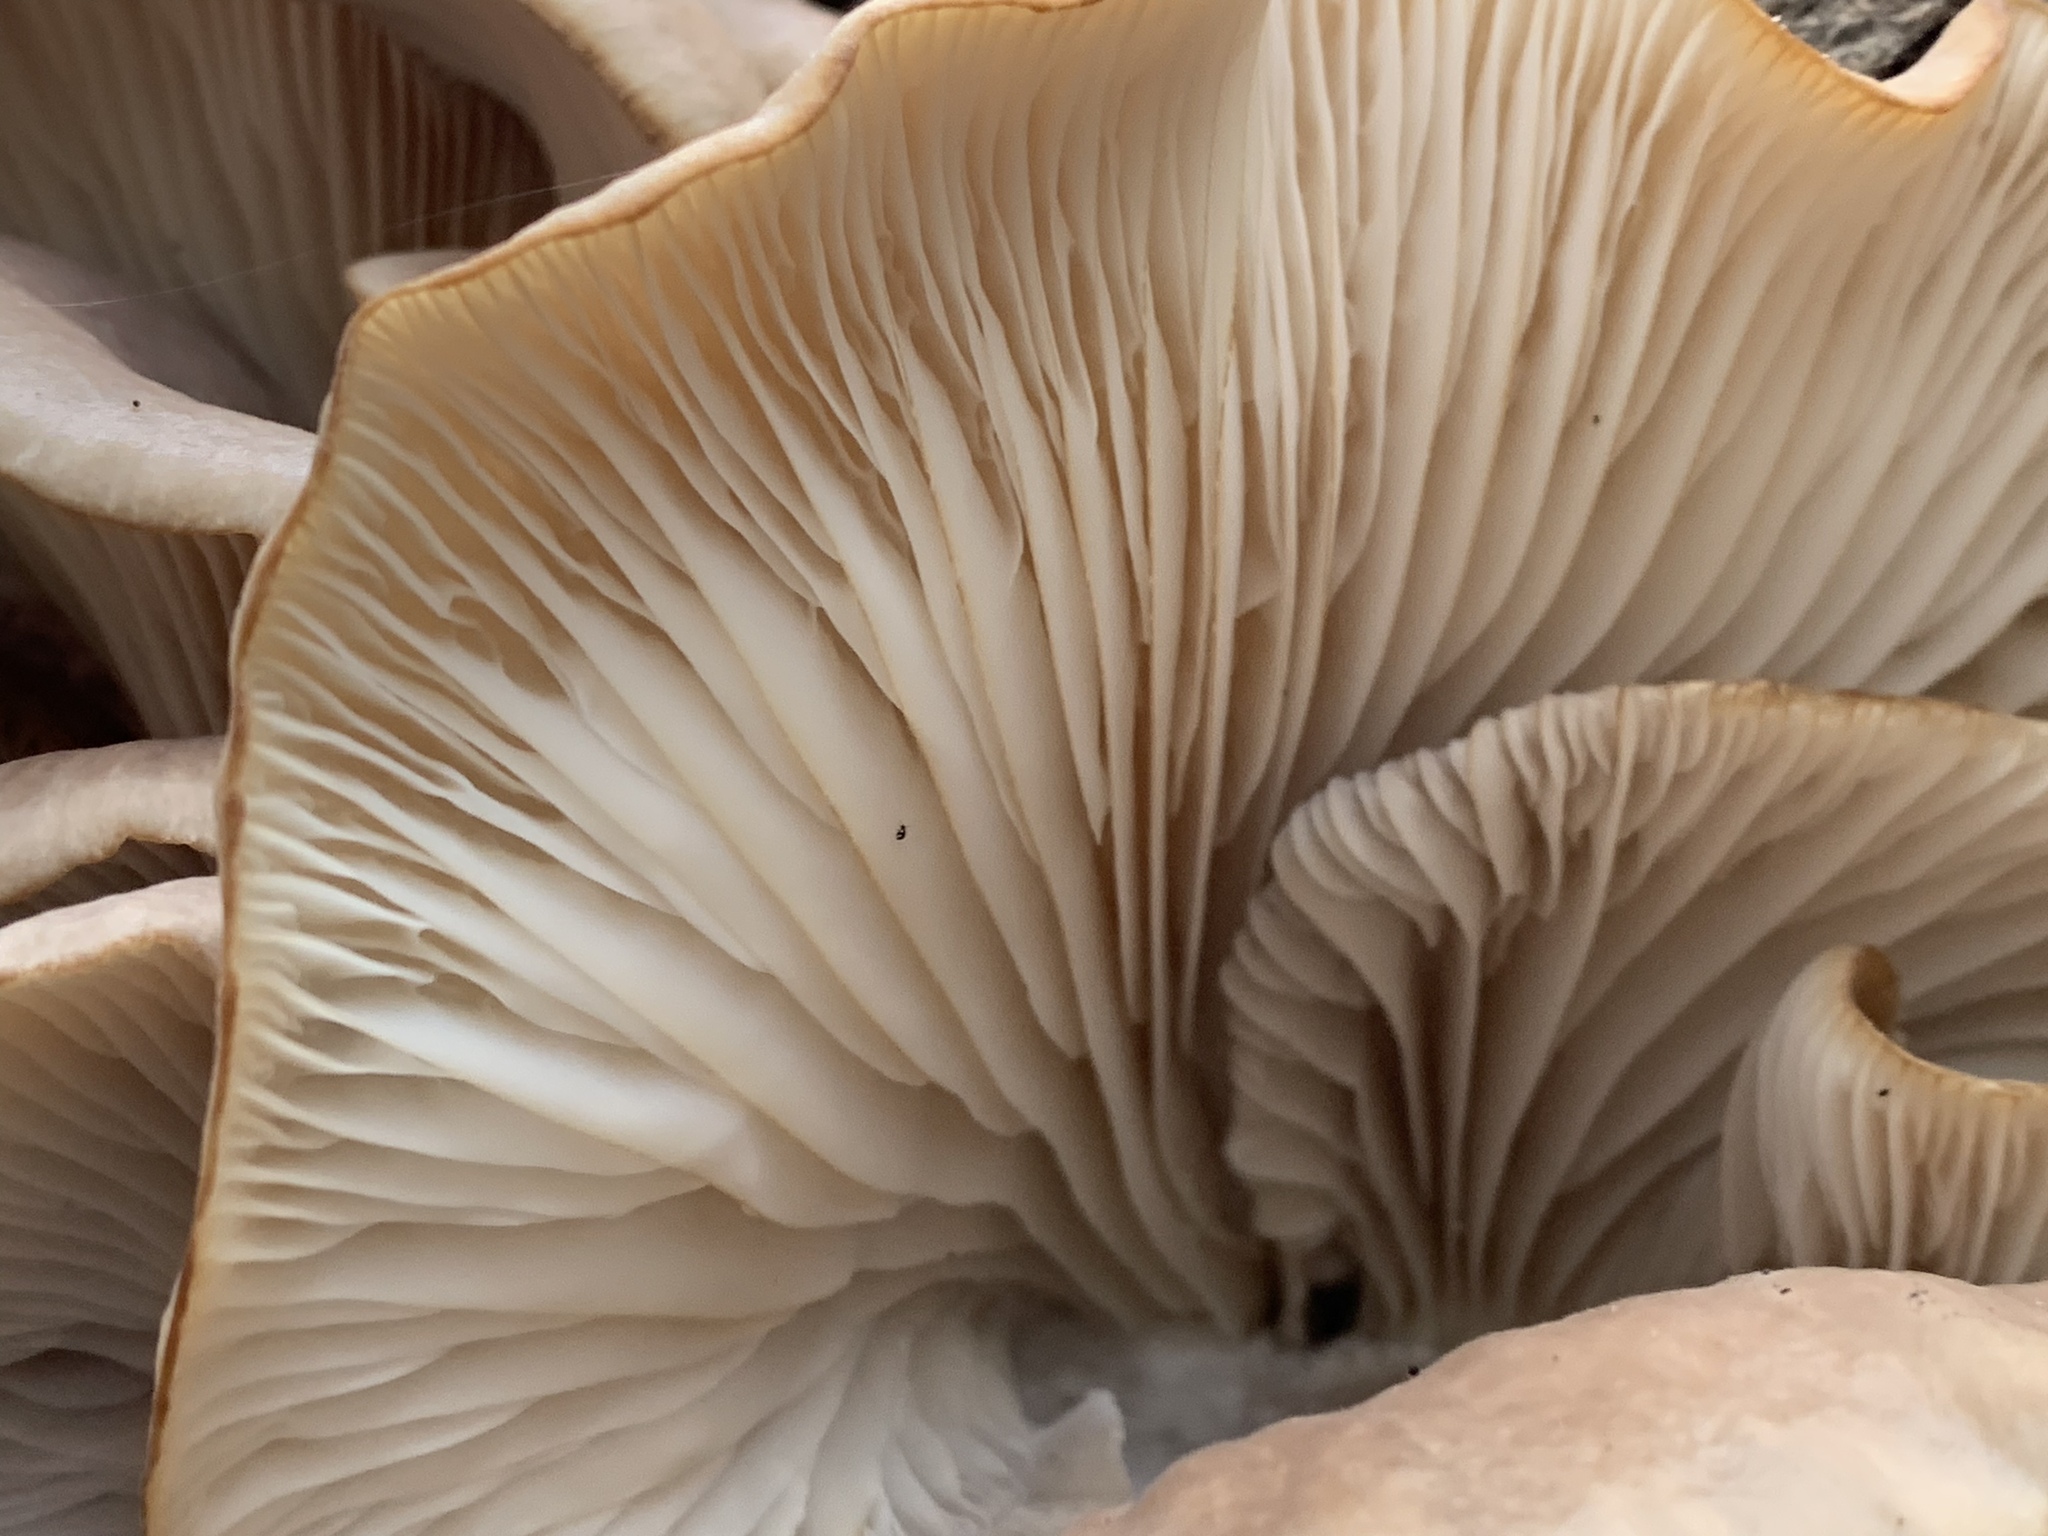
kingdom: Fungi
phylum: Basidiomycota
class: Agaricomycetes
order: Agaricales
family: Pleurotaceae
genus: Pleurotus
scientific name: Pleurotus ostreatus
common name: Oyster mushroom
